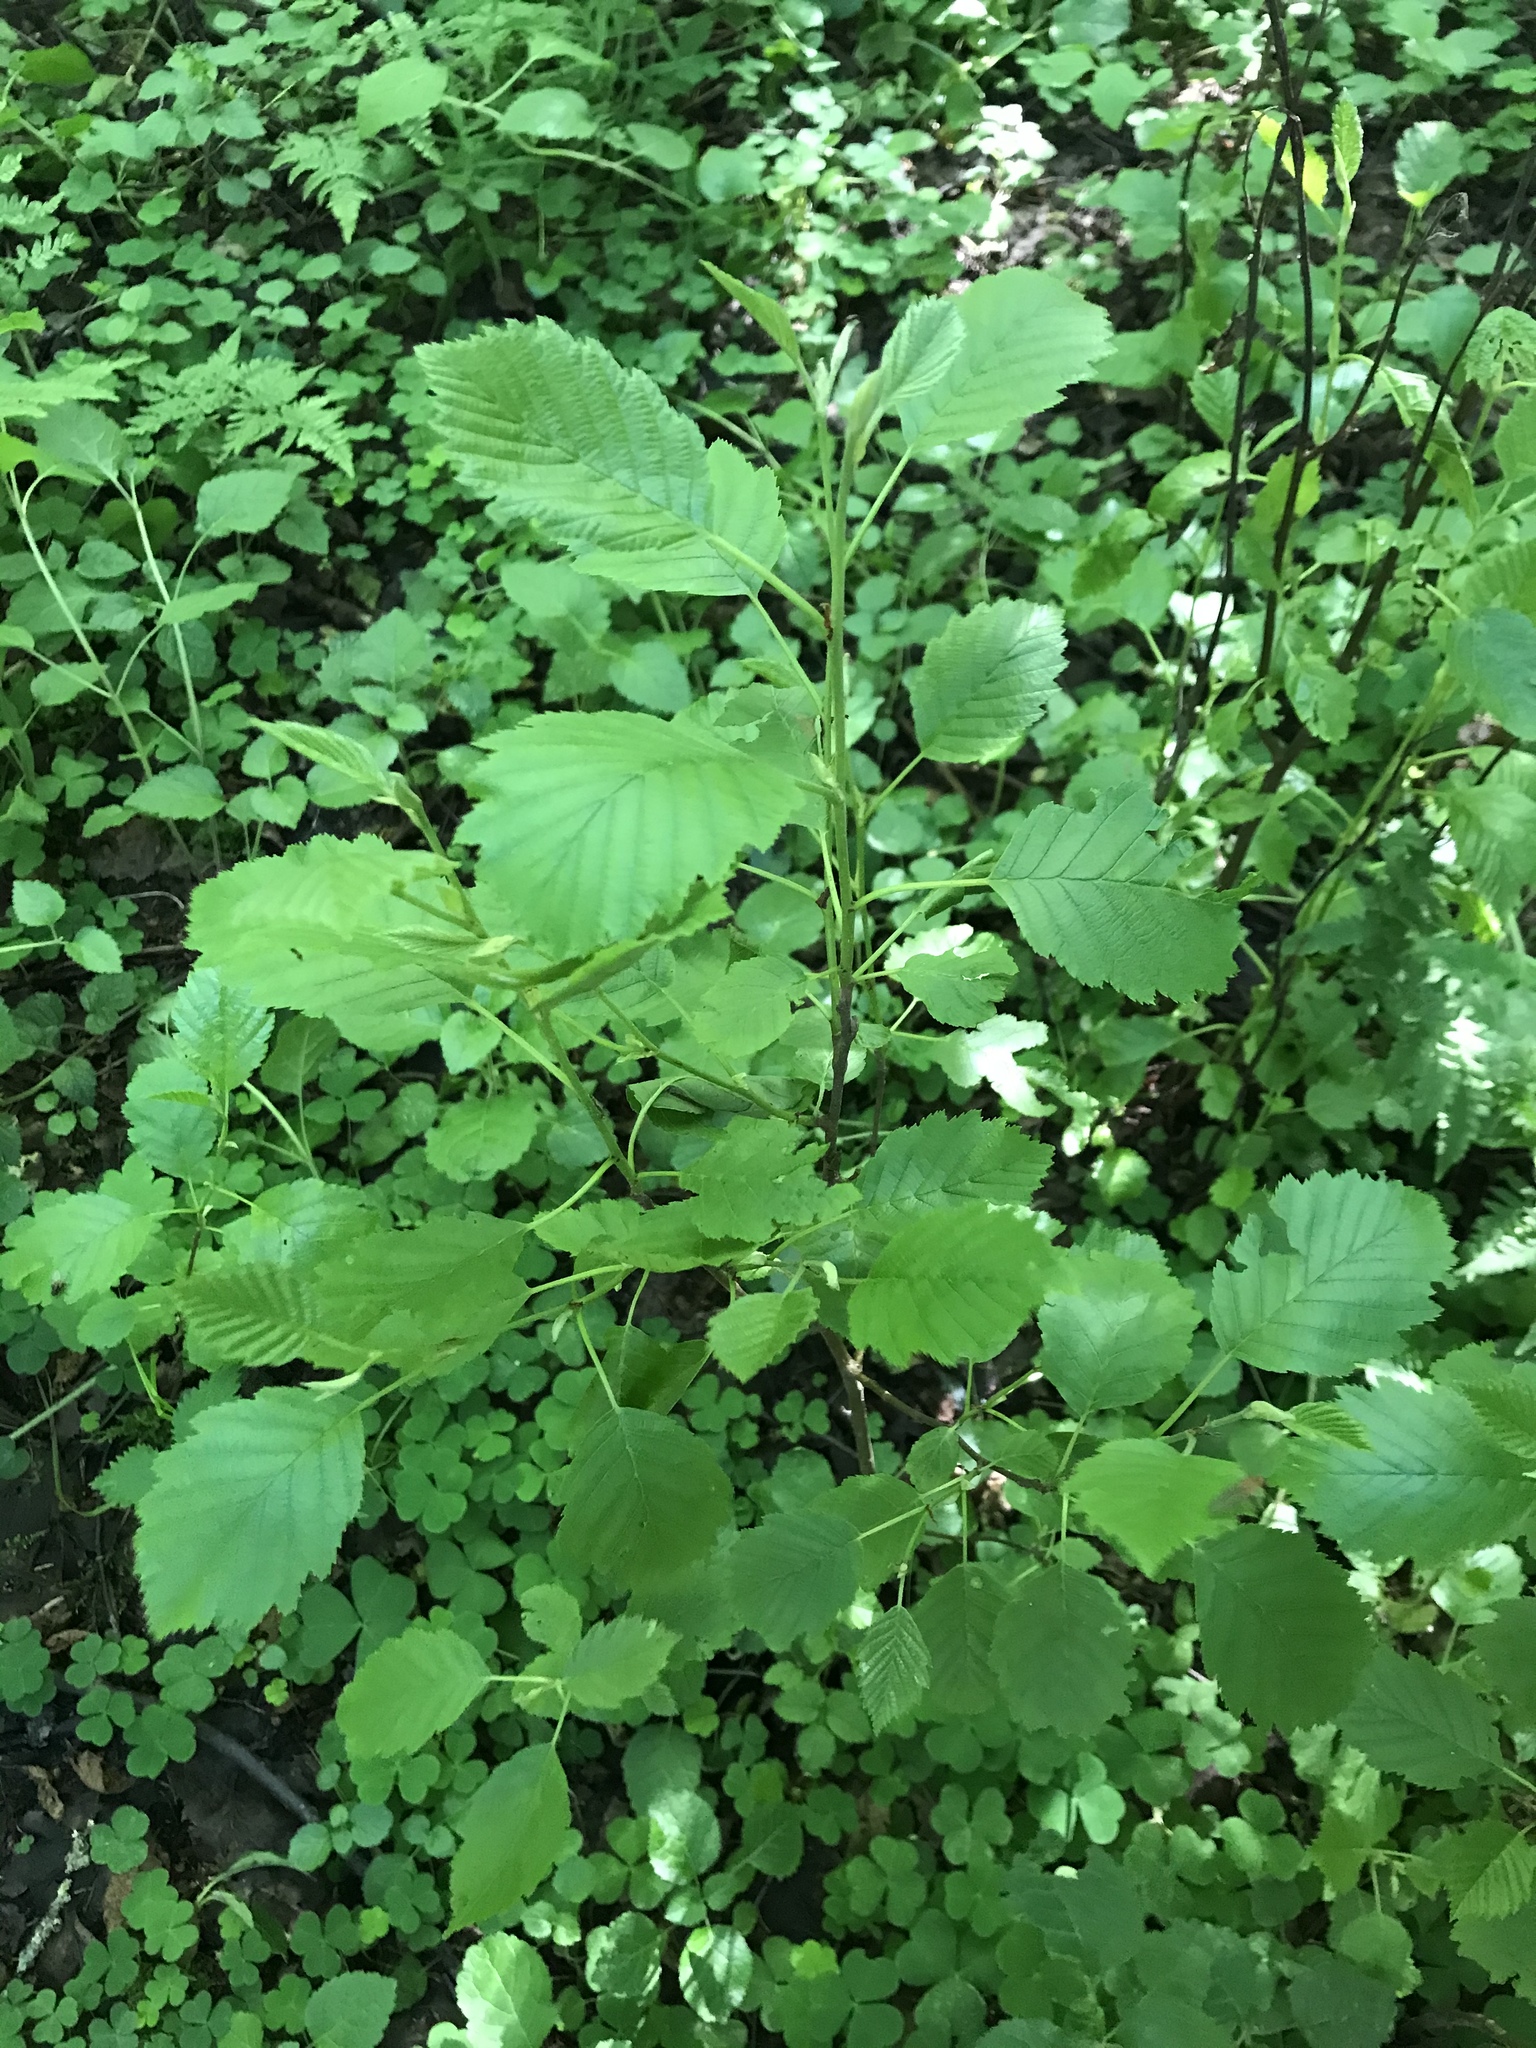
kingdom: Plantae
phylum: Tracheophyta
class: Magnoliopsida
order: Fagales
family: Betulaceae
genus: Alnus
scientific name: Alnus incana
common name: Grey alder
